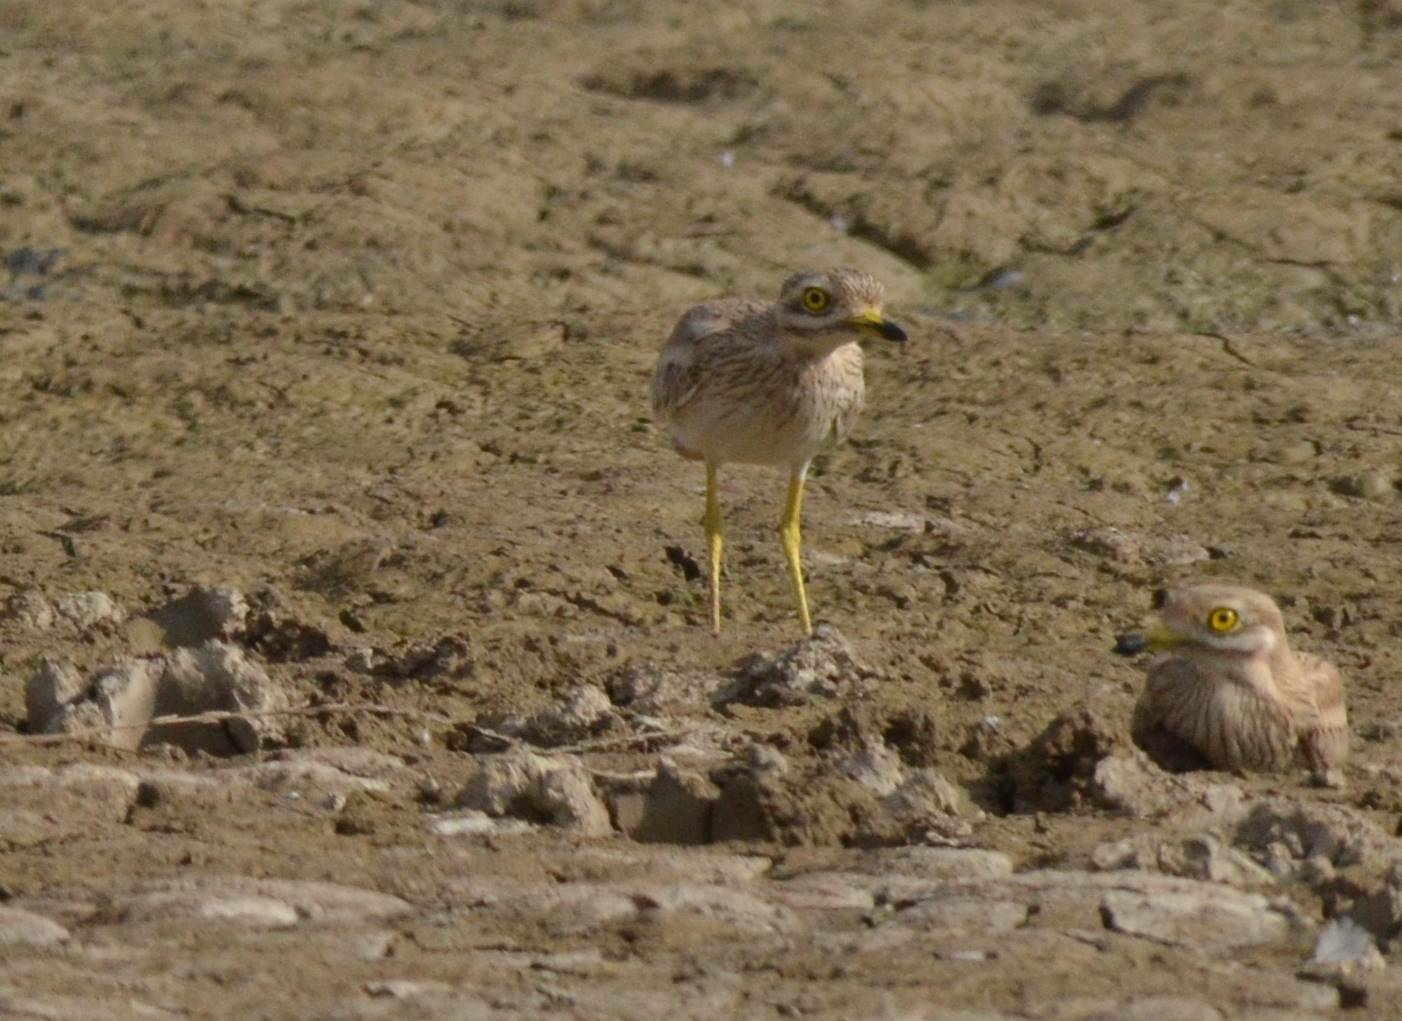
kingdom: Animalia
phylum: Chordata
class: Aves
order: Charadriiformes
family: Burhinidae
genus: Burhinus
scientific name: Burhinus oedicnemus
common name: Eurasian stone-curlew
